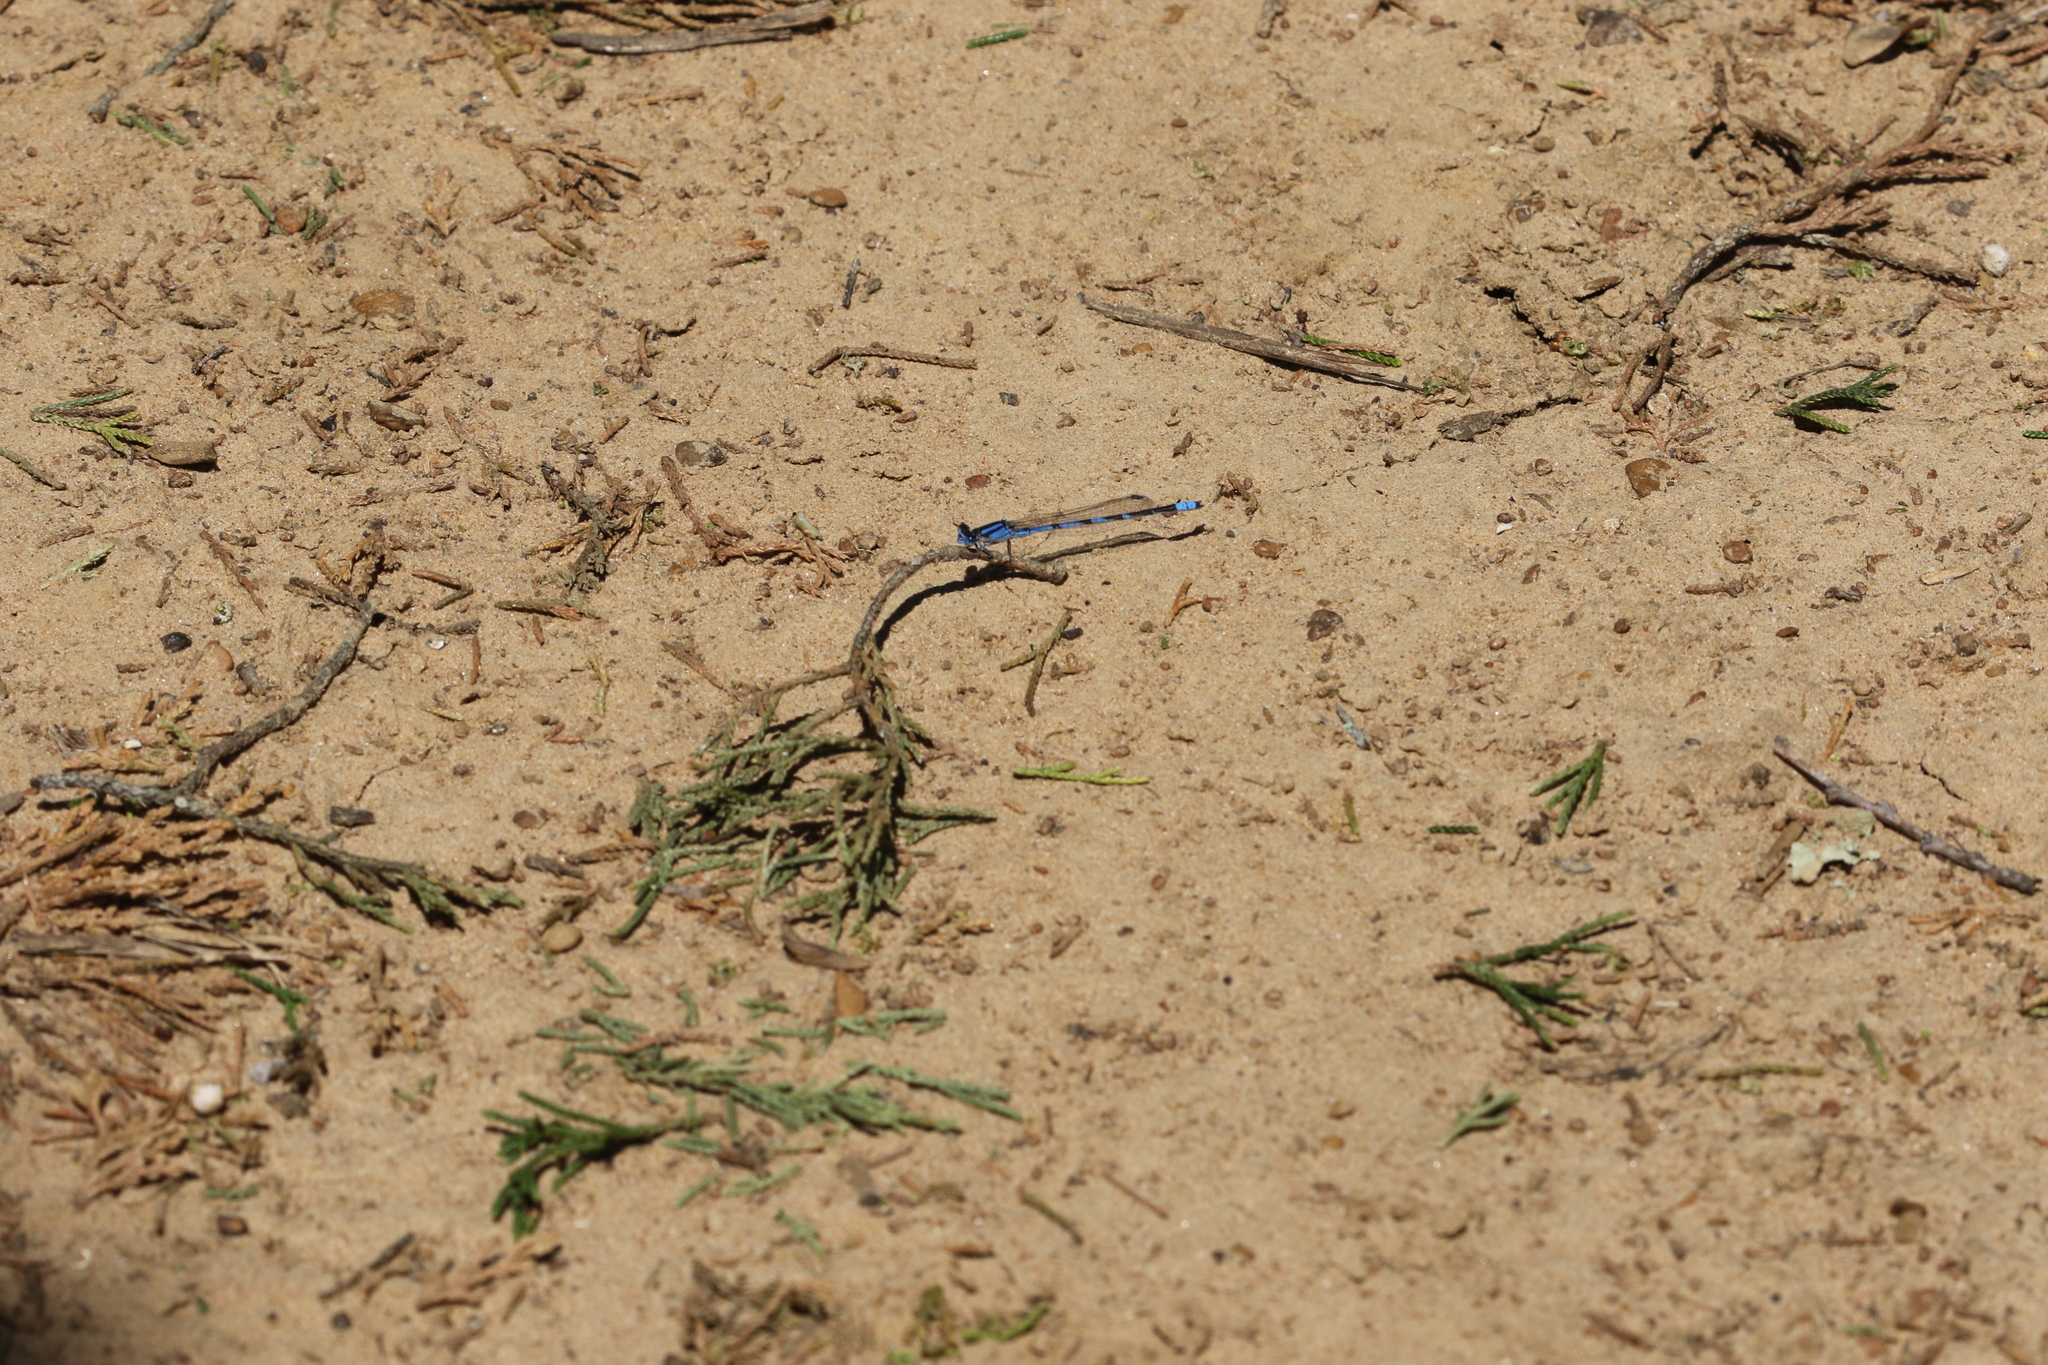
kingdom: Animalia
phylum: Arthropoda
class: Insecta
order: Odonata
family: Coenagrionidae
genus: Enallagma
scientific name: Enallagma civile
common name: Damselfly
